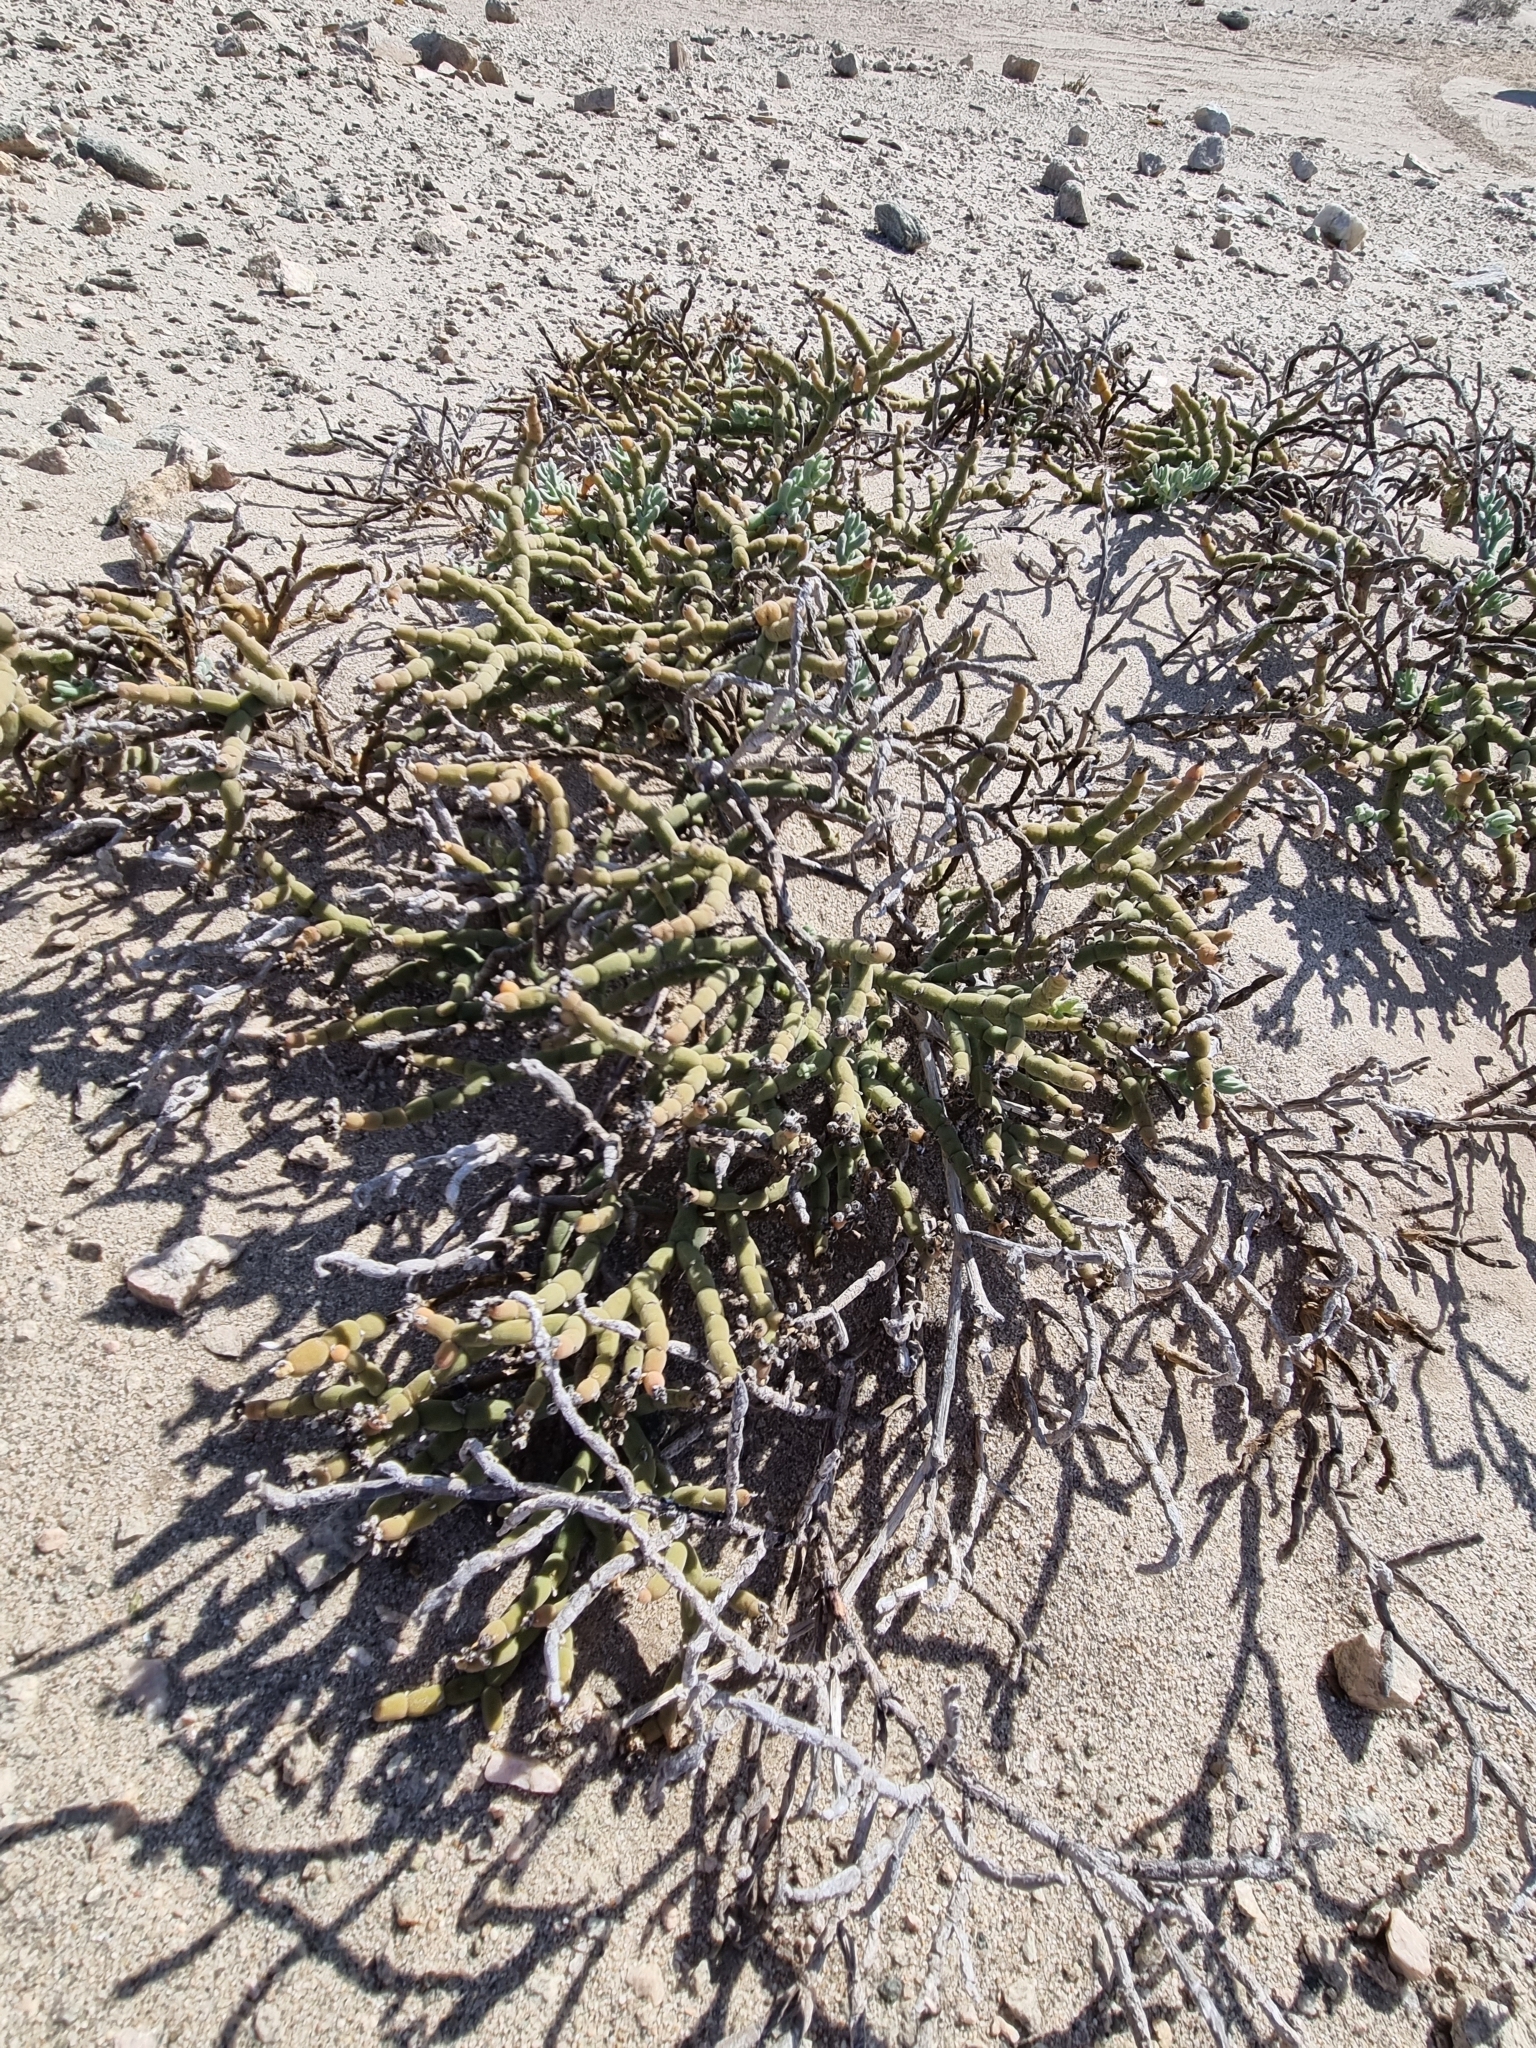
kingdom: Plantae
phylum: Tracheophyta
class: Magnoliopsida
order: Caryophyllales
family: Aizoaceae
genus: Mesembryanthemum
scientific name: Mesembryanthemum schlichtianum
